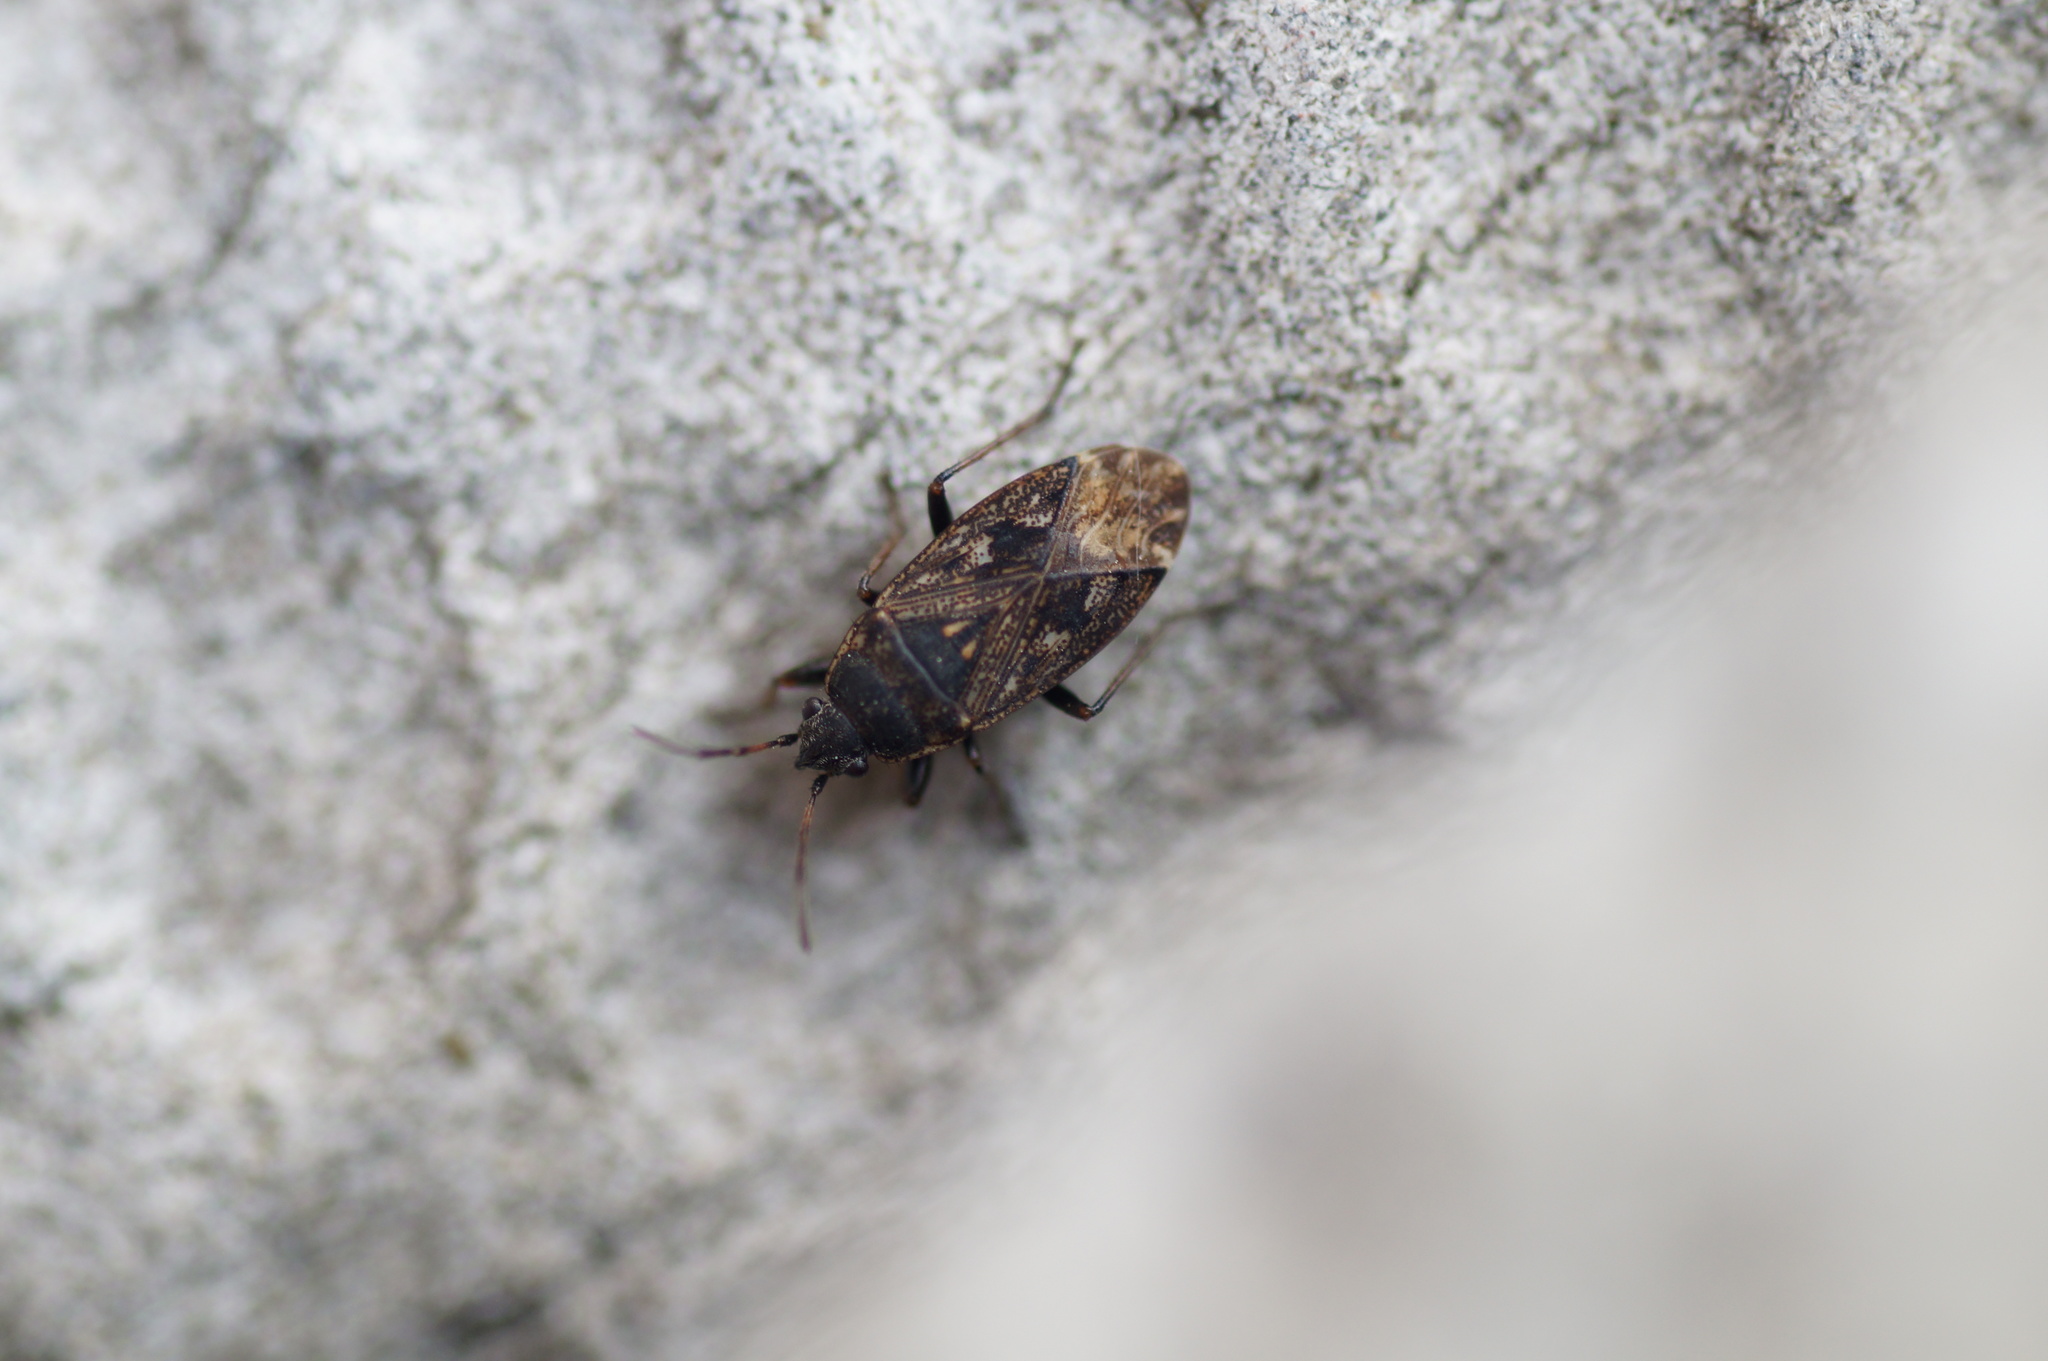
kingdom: Animalia
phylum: Arthropoda
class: Insecta
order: Hemiptera
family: Rhyparochromidae
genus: Sphragisticus
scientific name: Sphragisticus nebulosus
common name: Dirt-colored seed bug
